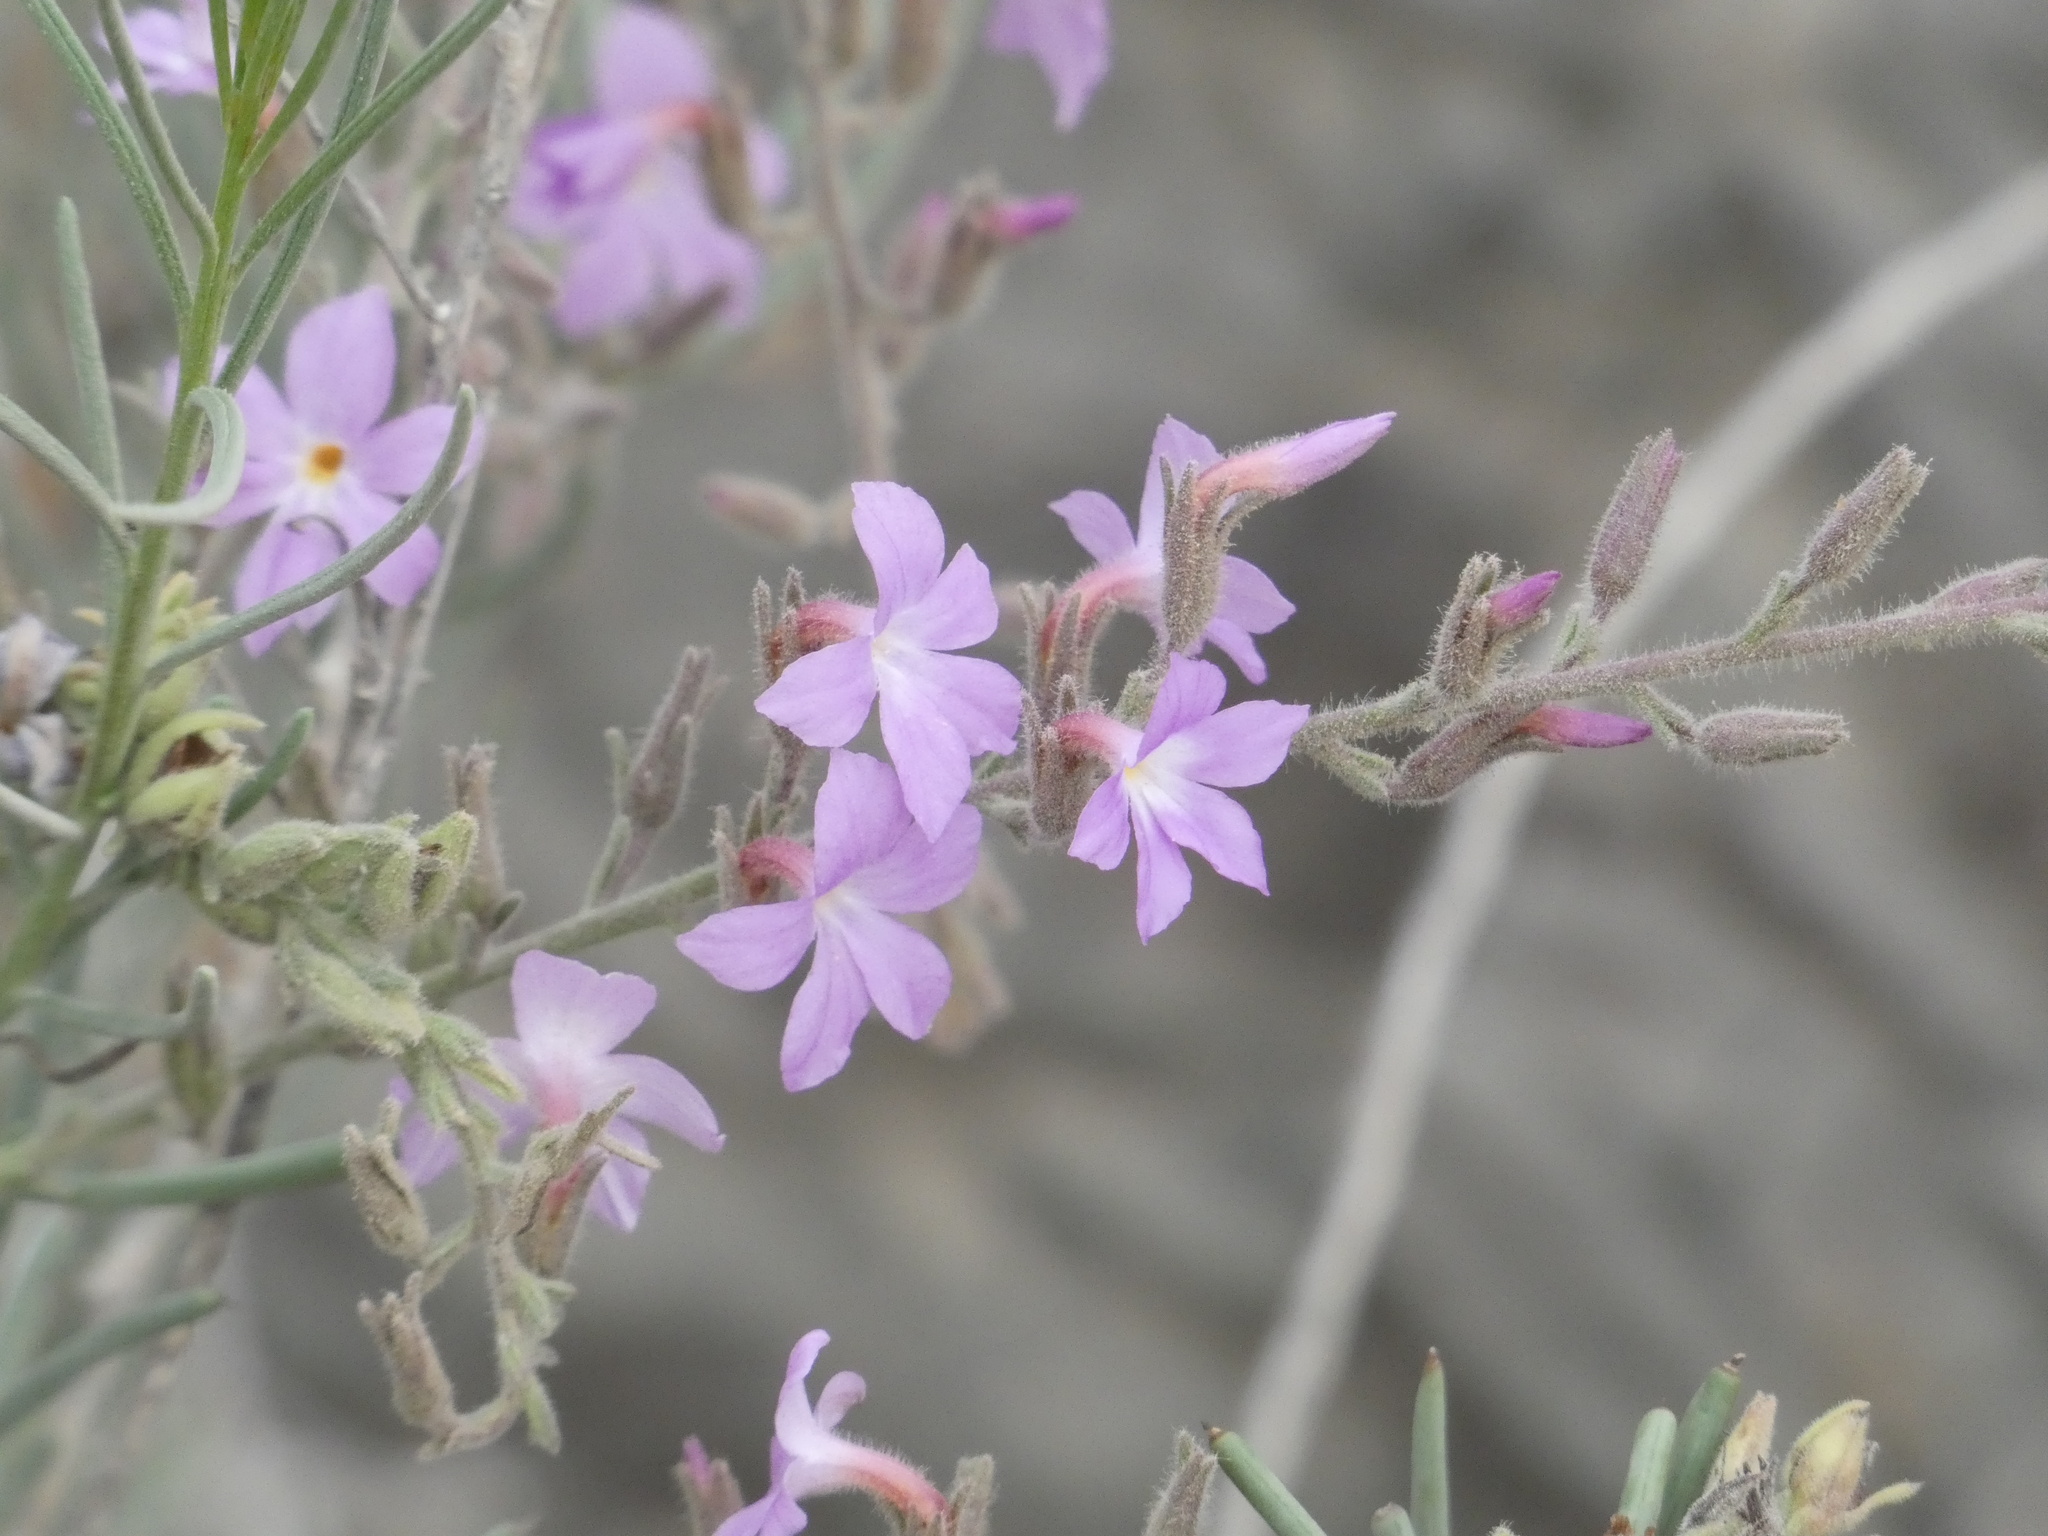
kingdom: Plantae
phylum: Tracheophyta
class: Magnoliopsida
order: Lamiales
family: Plantaginaceae
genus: Campylanthus
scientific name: Campylanthus salsoloides
